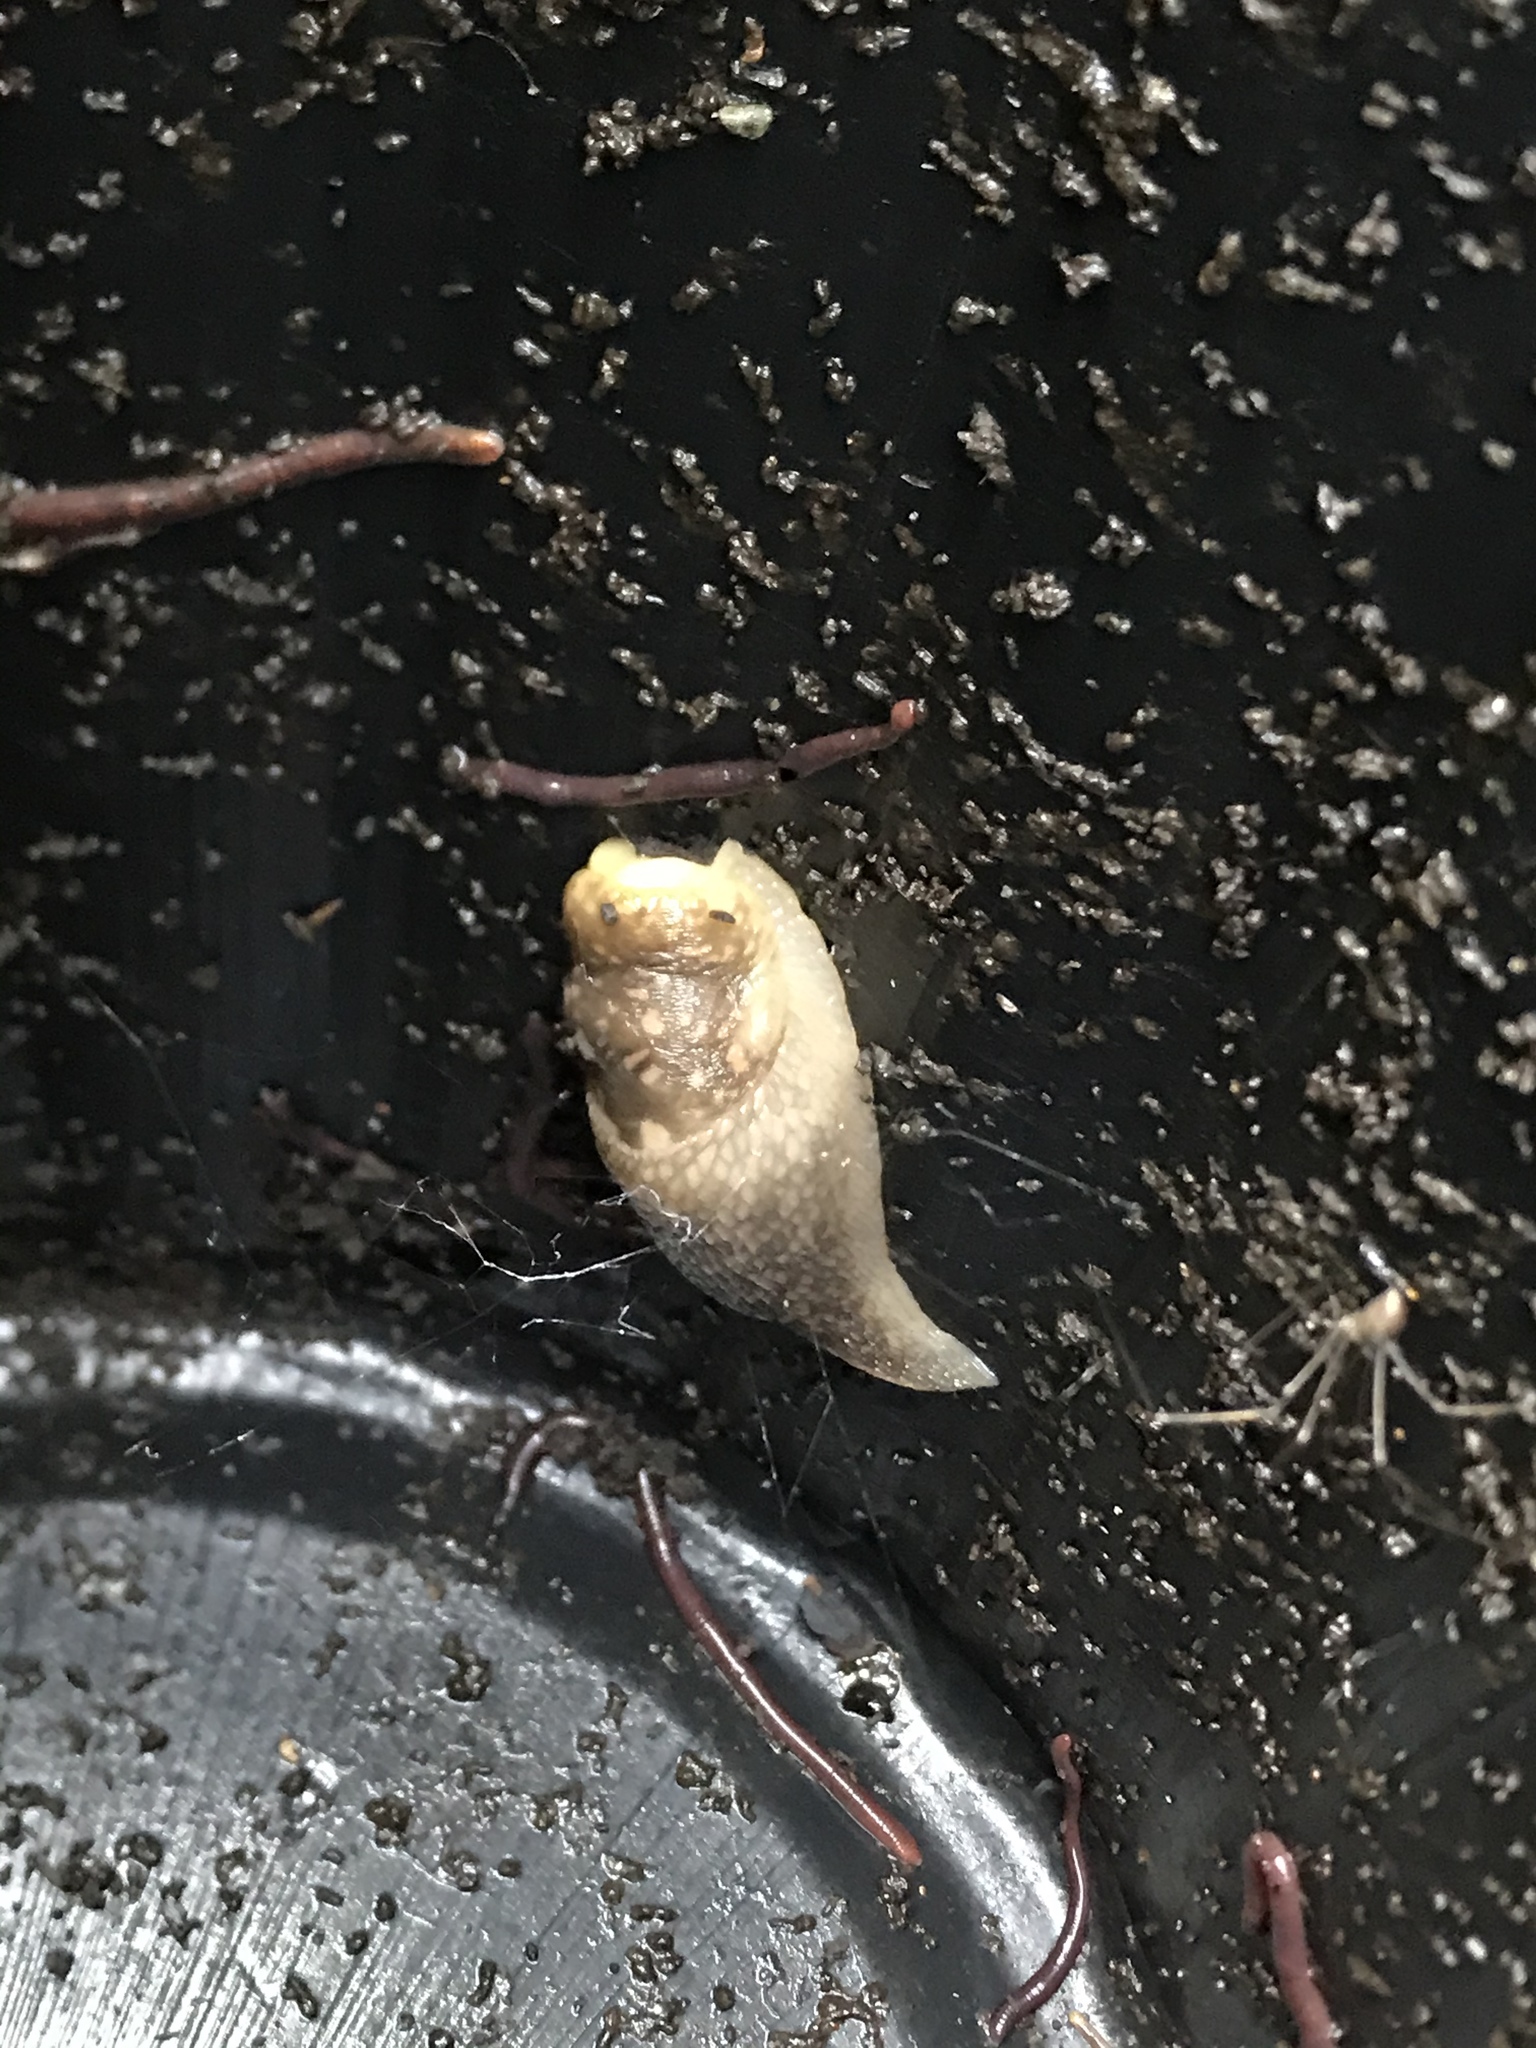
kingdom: Animalia
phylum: Mollusca
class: Gastropoda
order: Stylommatophora
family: Limacidae
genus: Limacus
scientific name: Limacus flavus
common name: Yellow gardenslug
